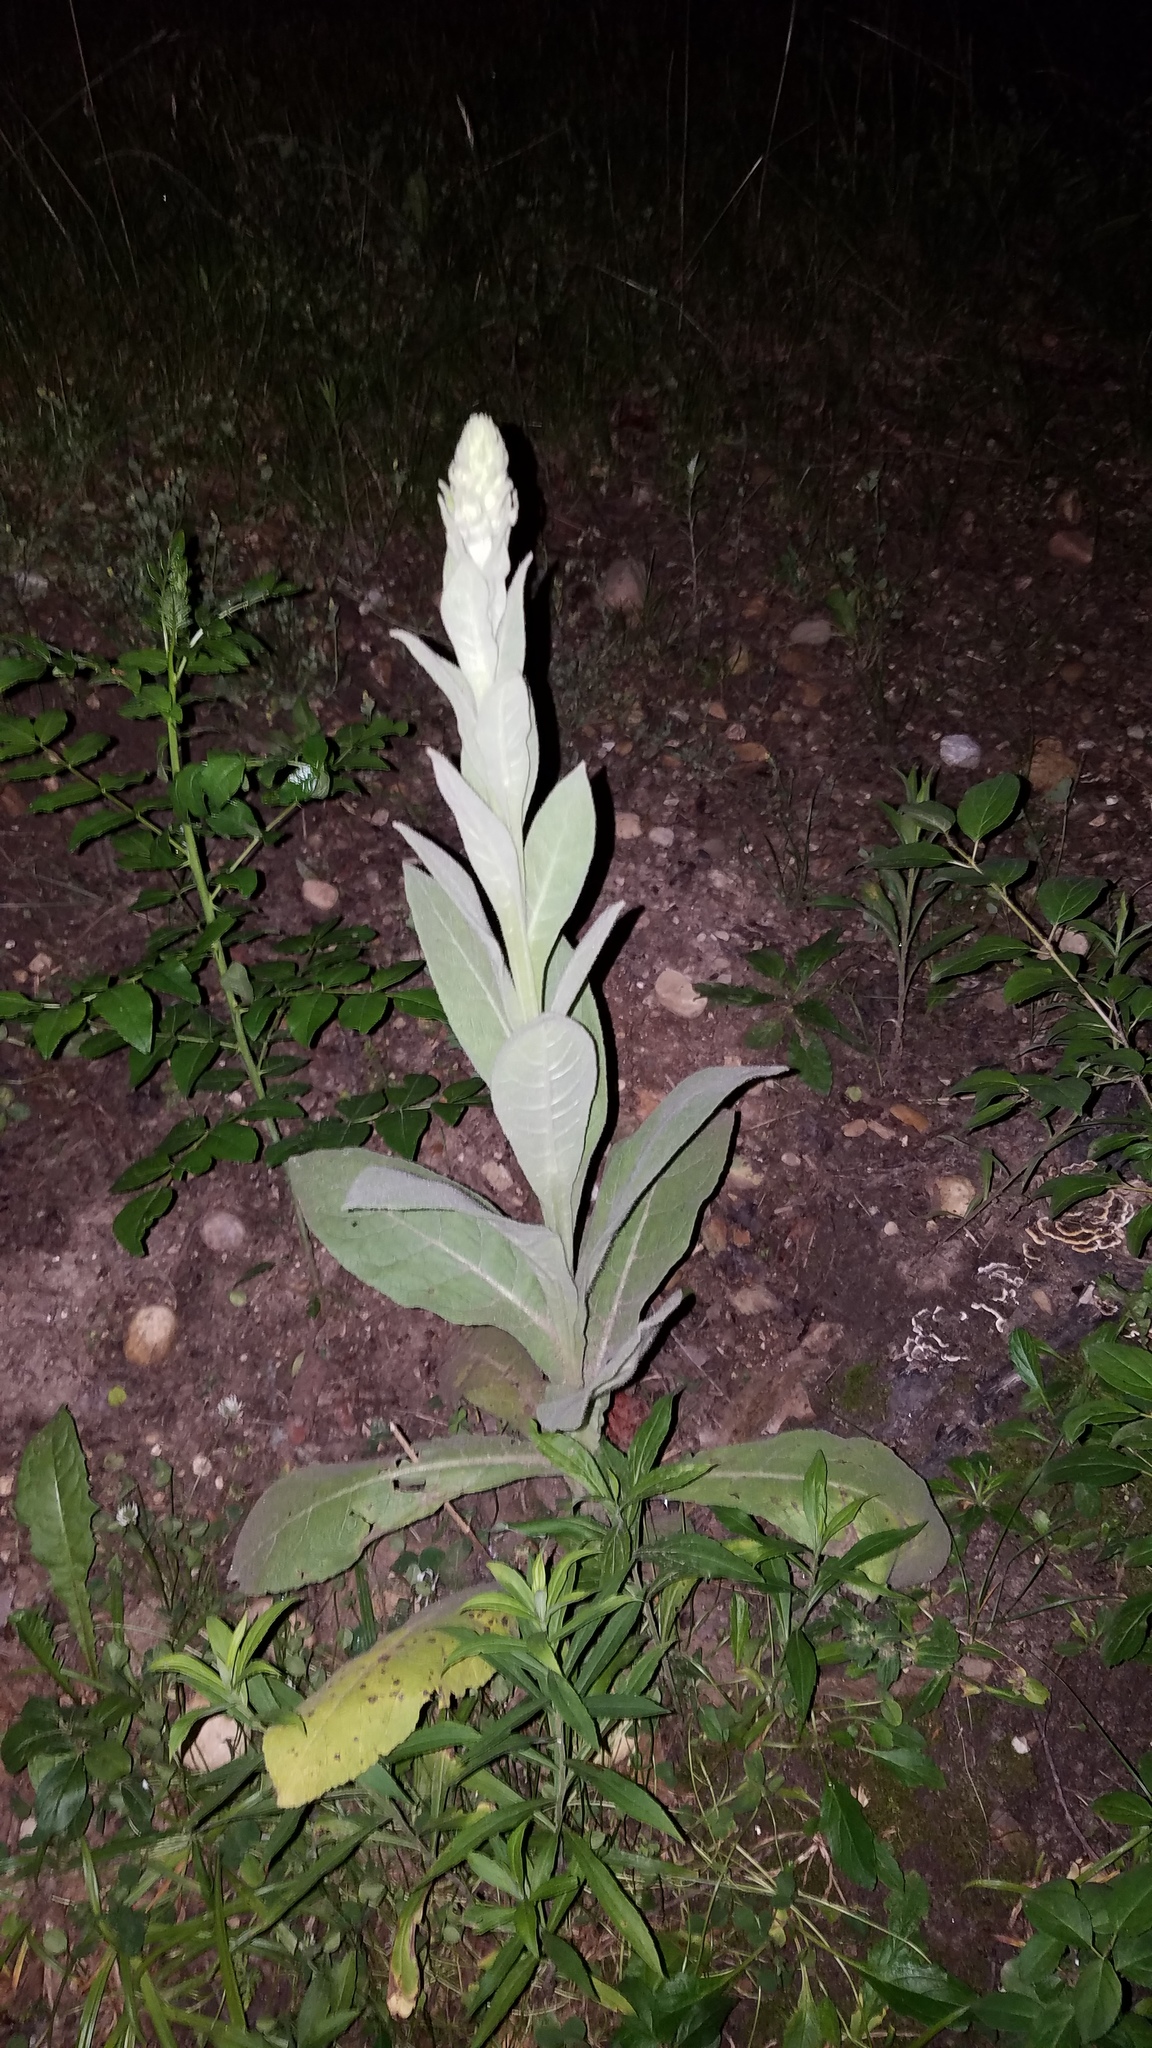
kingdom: Plantae
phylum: Tracheophyta
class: Magnoliopsida
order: Lamiales
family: Scrophulariaceae
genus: Verbascum
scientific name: Verbascum thapsus
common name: Common mullein
